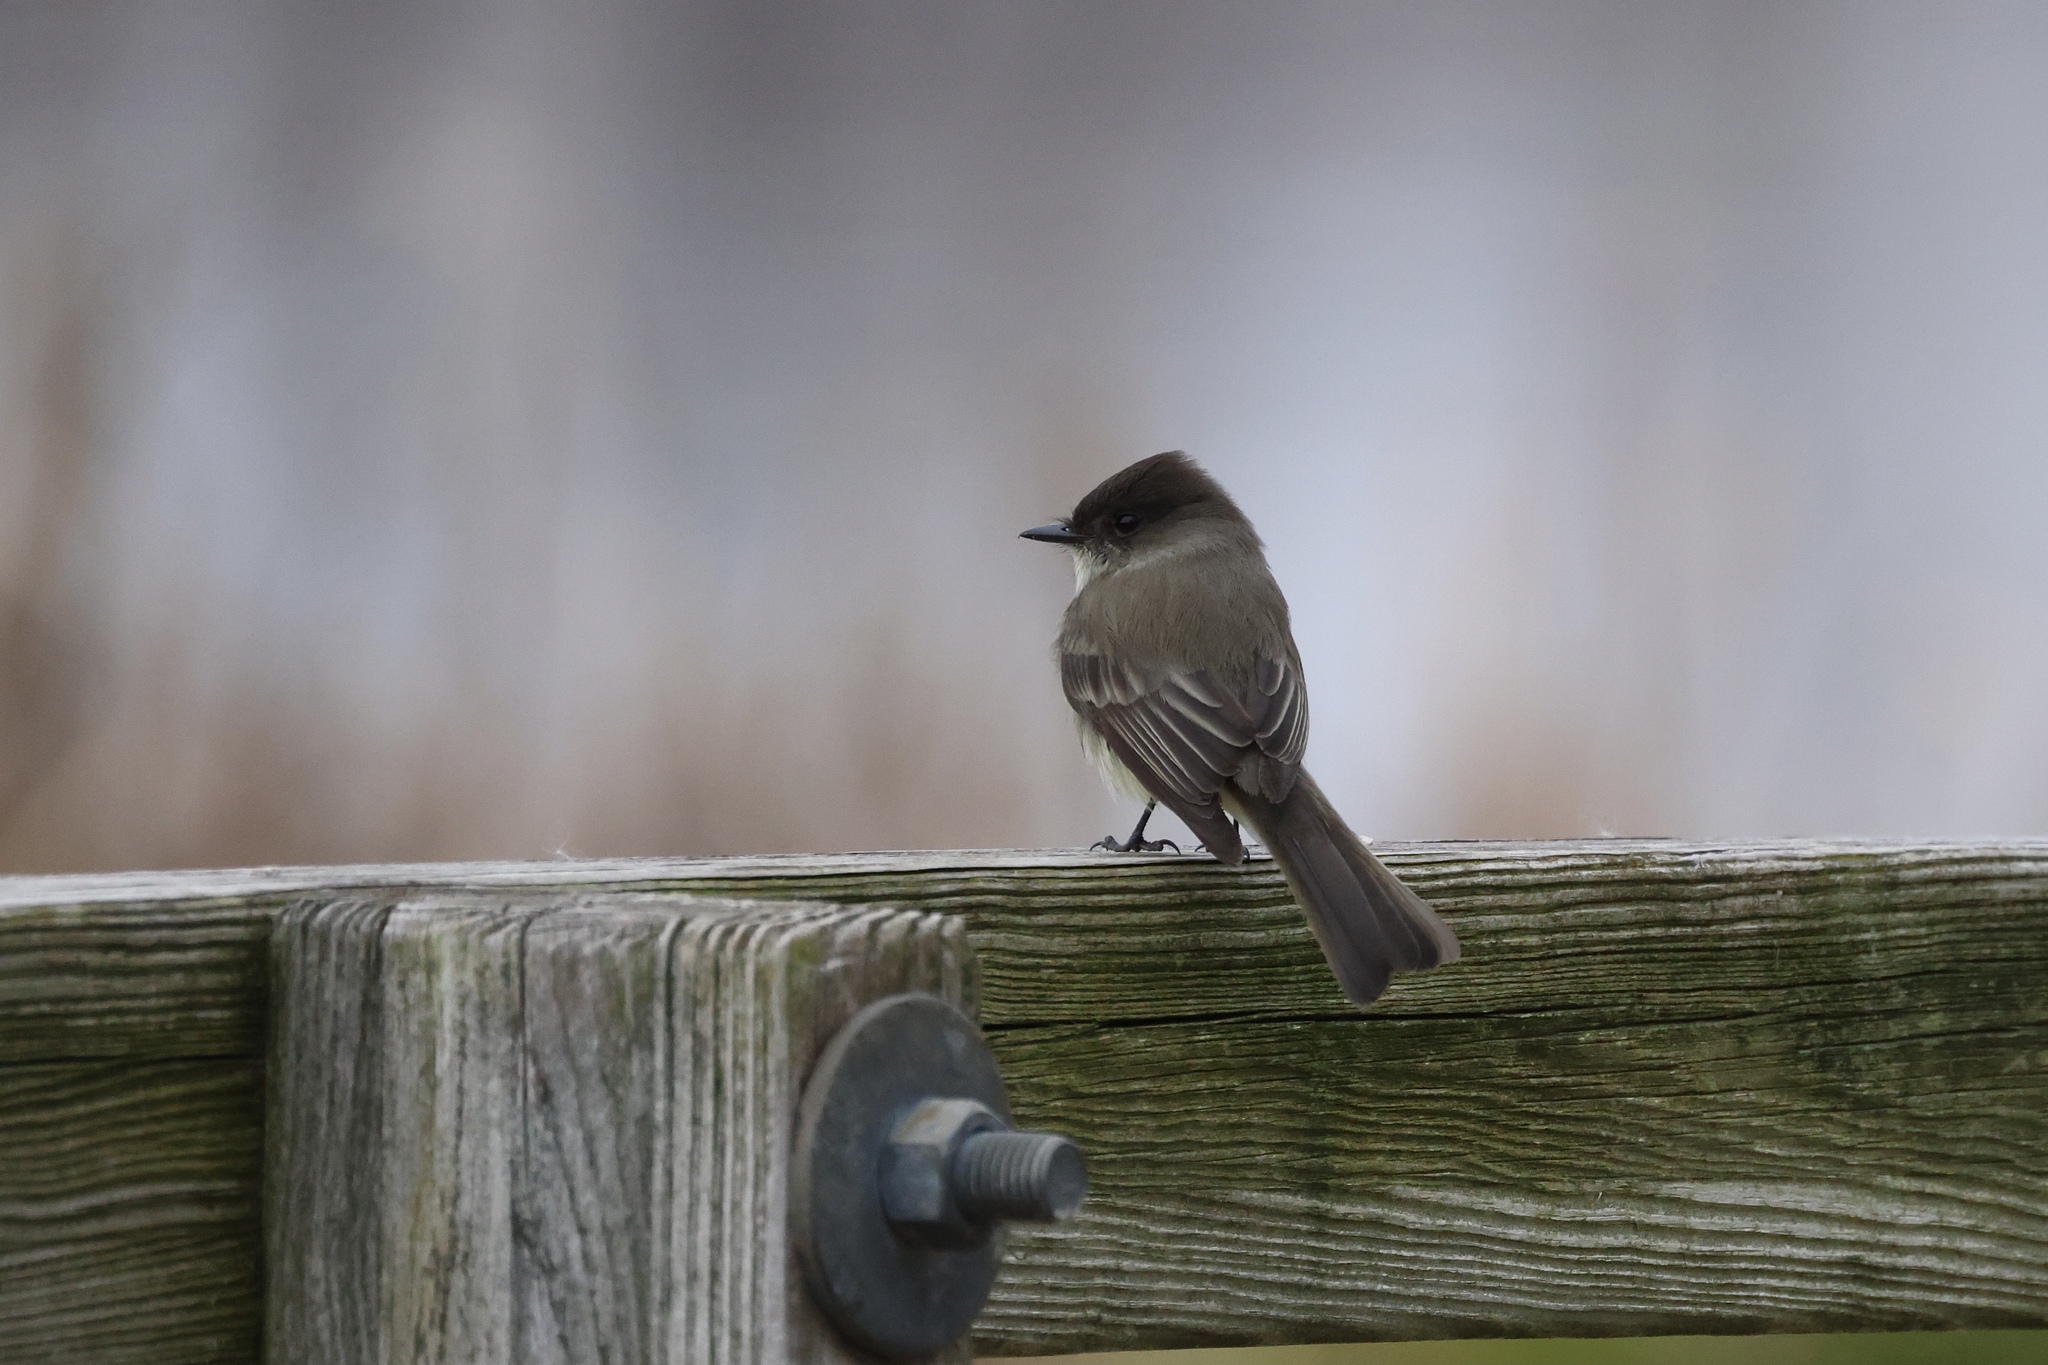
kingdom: Animalia
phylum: Chordata
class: Aves
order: Passeriformes
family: Tyrannidae
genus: Sayornis
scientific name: Sayornis phoebe
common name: Eastern phoebe
